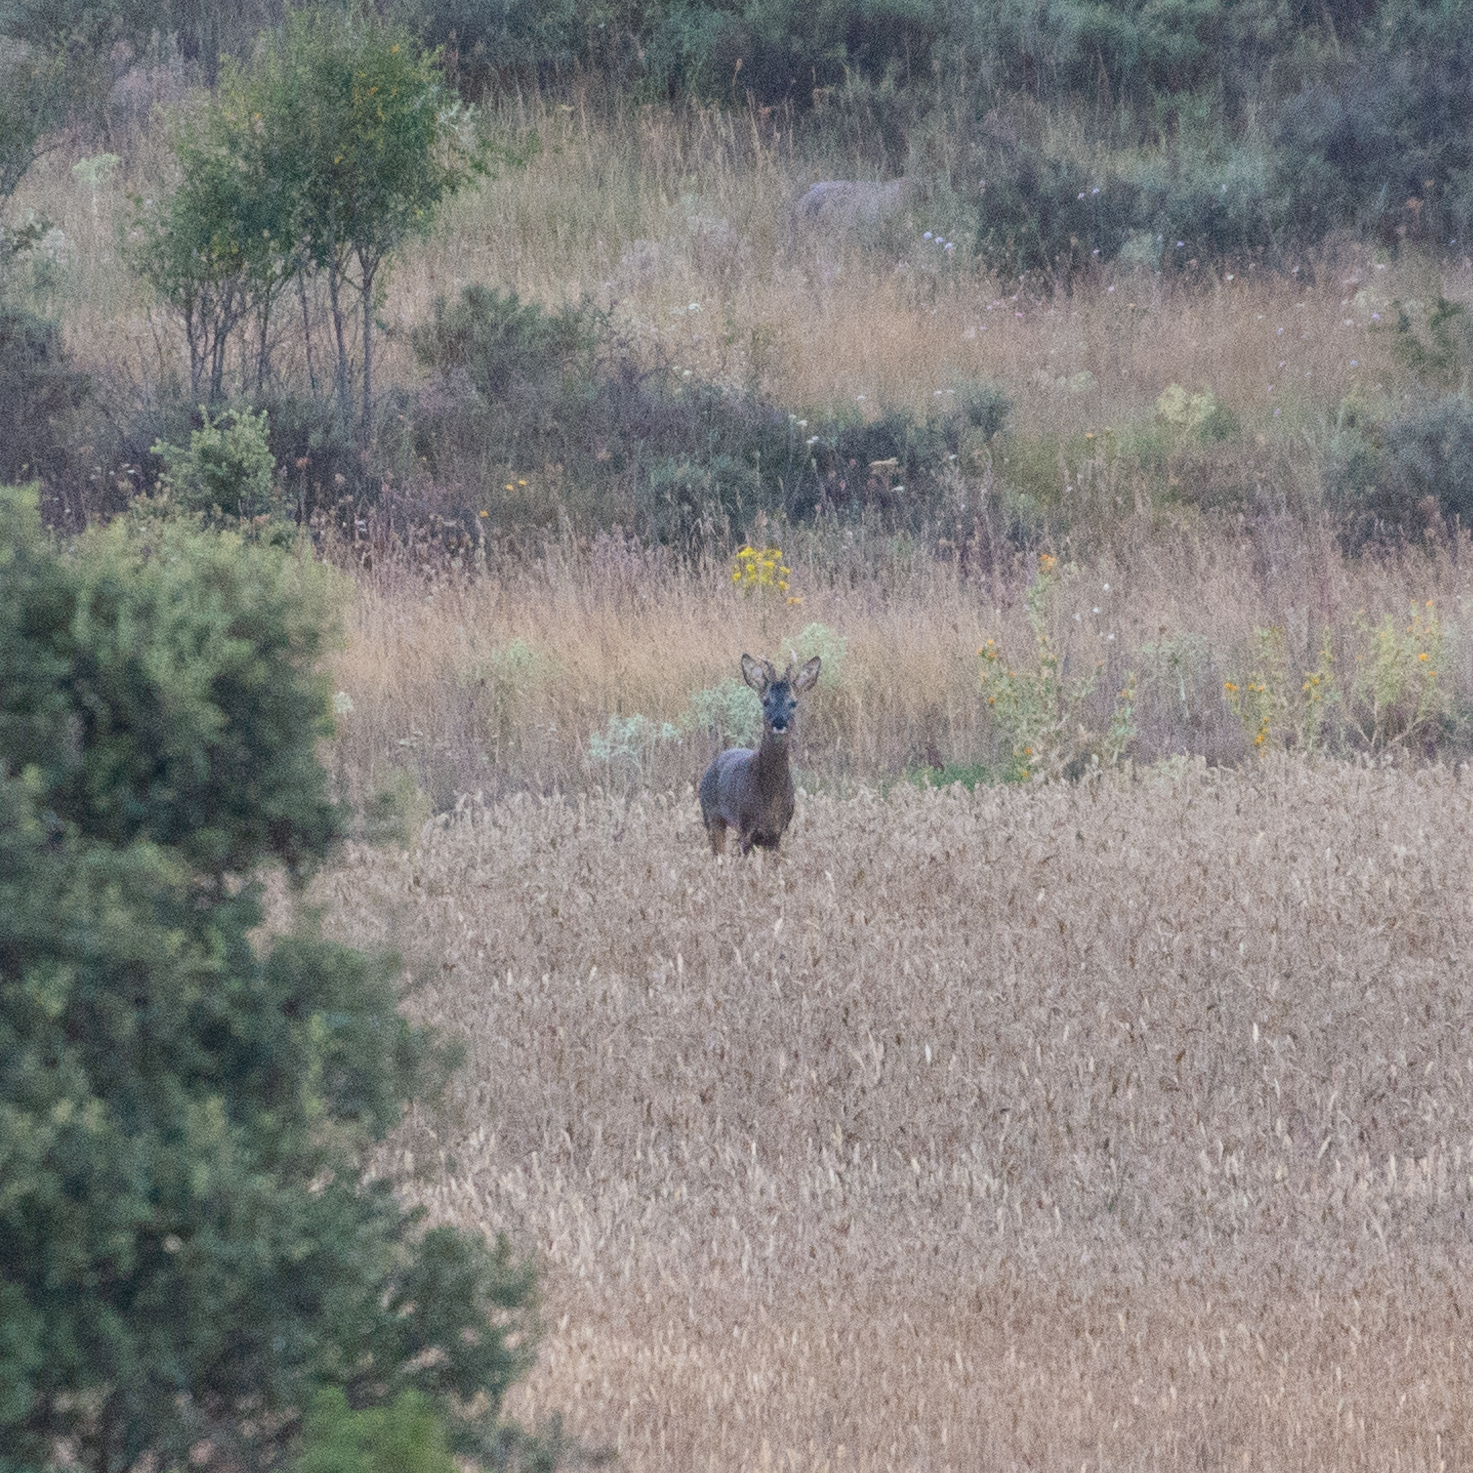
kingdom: Animalia
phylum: Chordata
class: Mammalia
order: Artiodactyla
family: Cervidae
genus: Capreolus
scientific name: Capreolus capreolus
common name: Western roe deer
